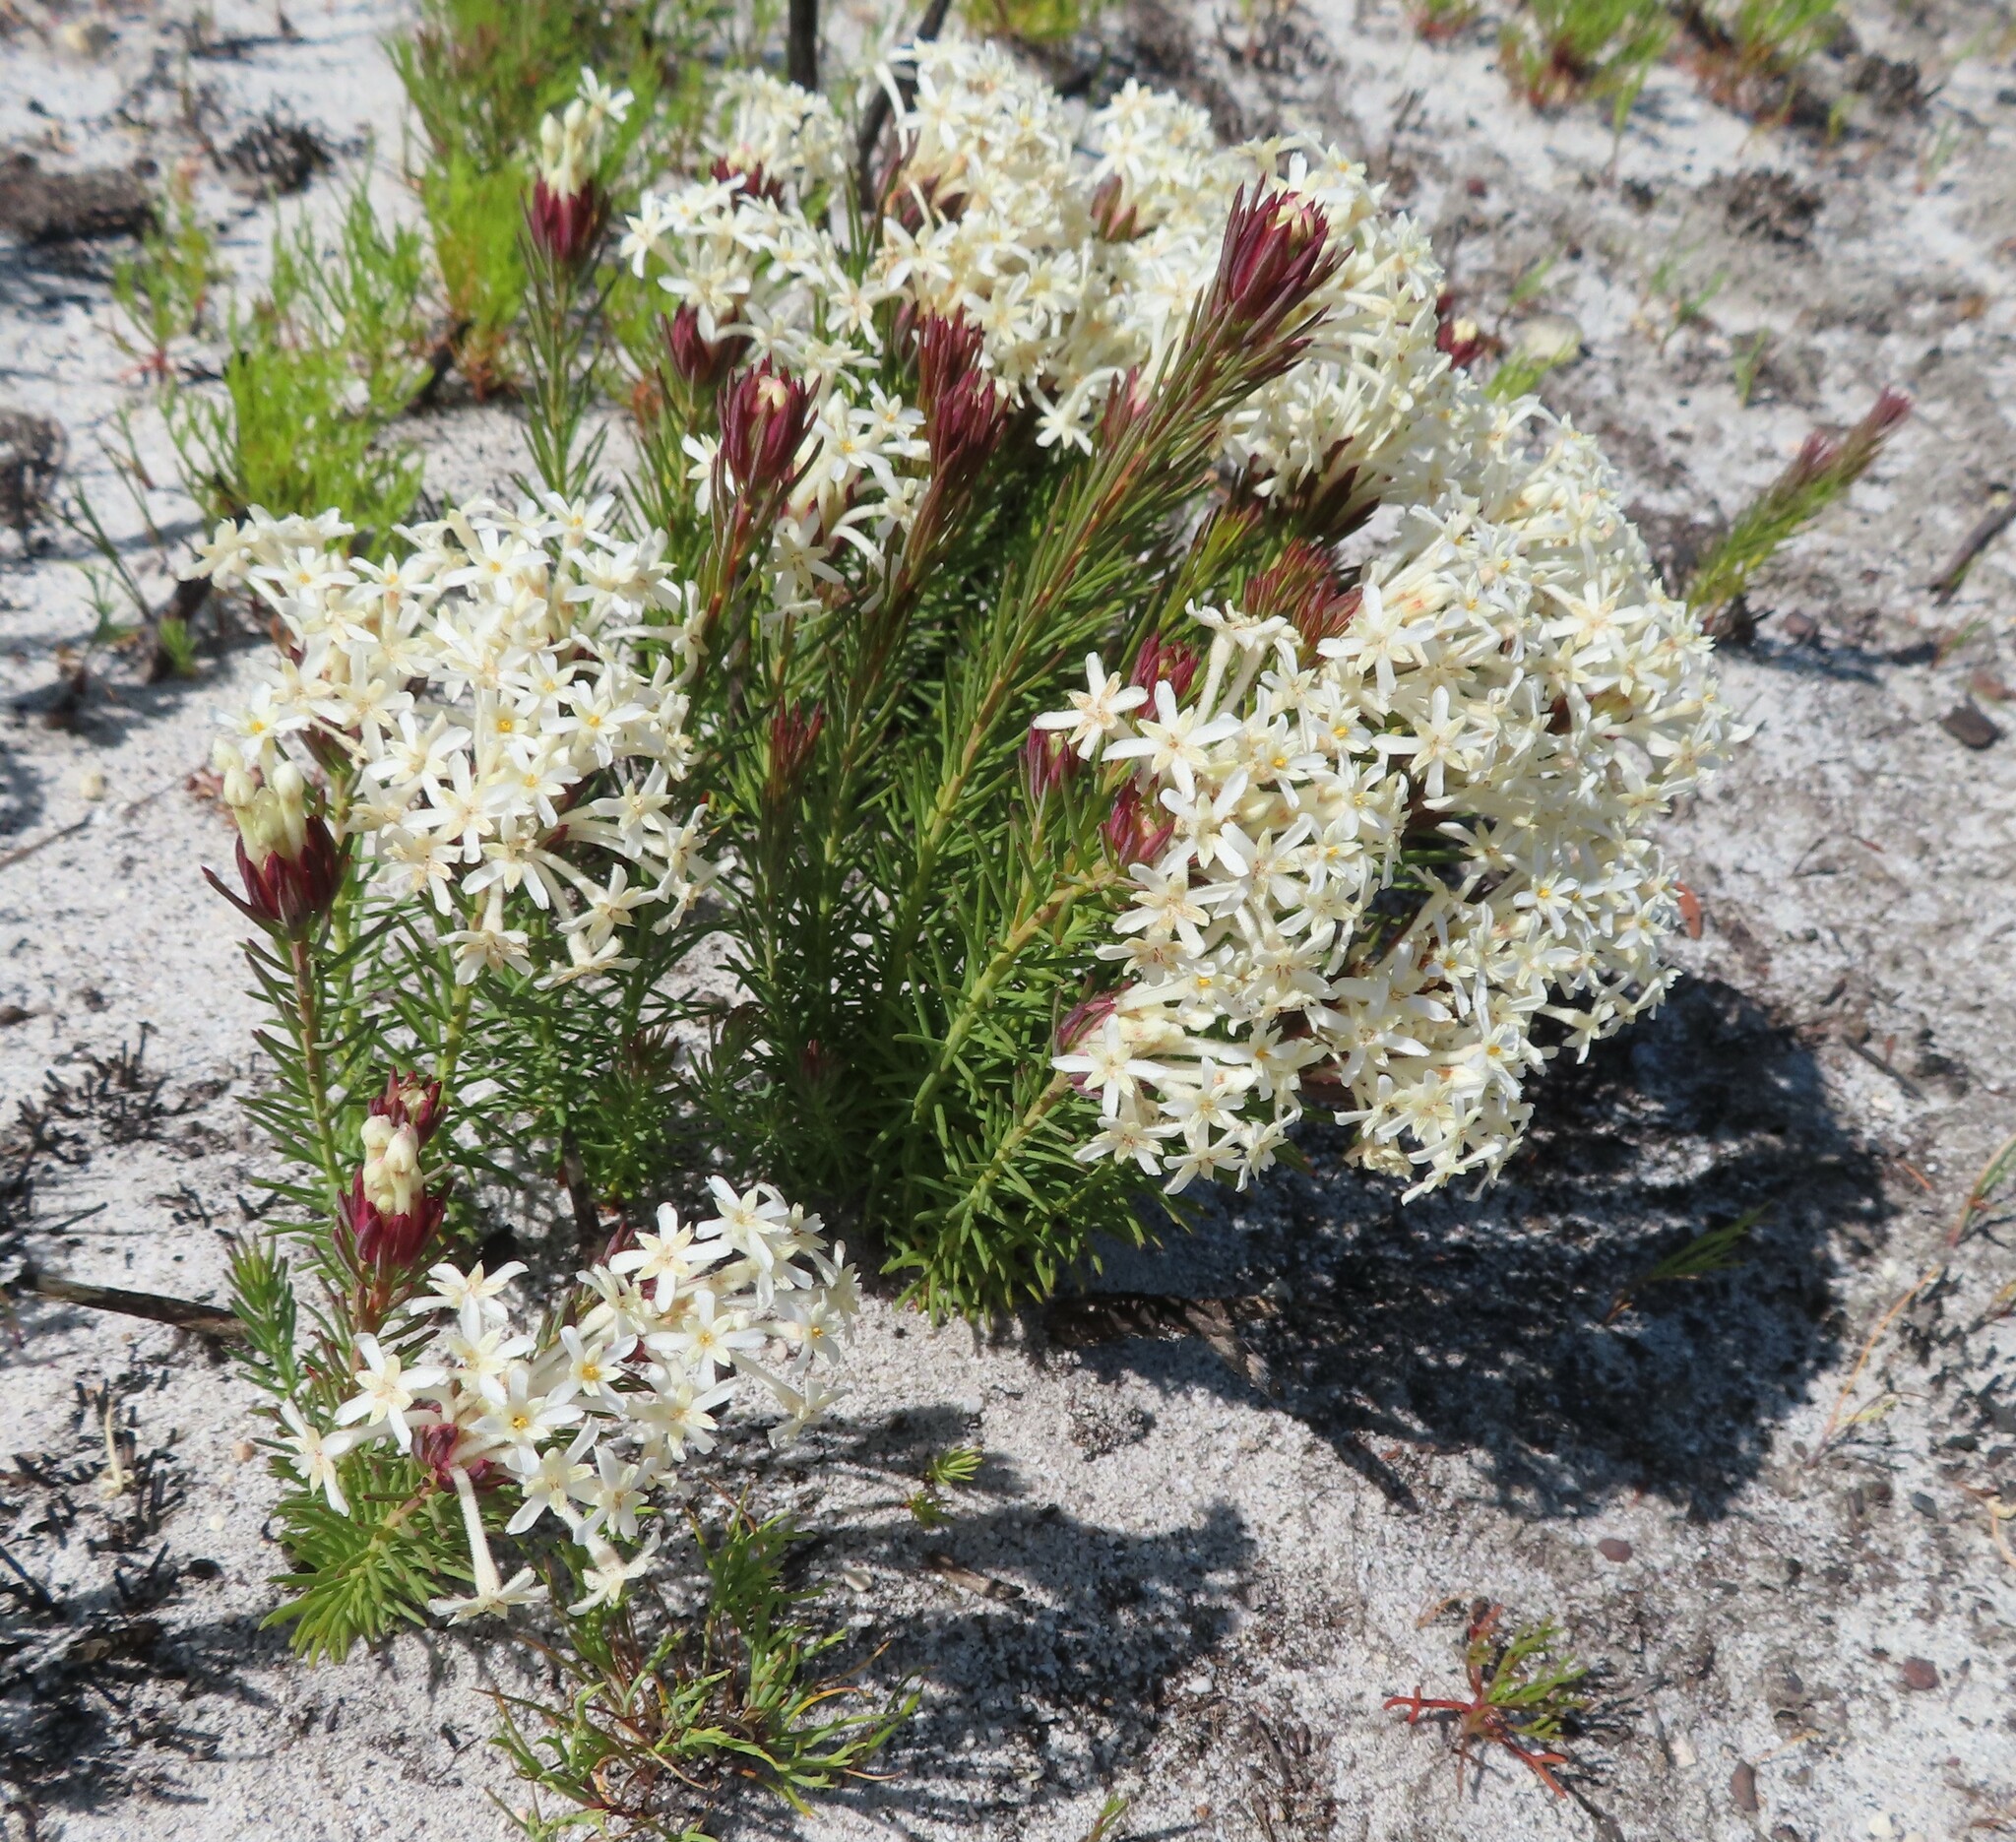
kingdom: Plantae
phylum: Tracheophyta
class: Magnoliopsida
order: Malvales
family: Thymelaeaceae
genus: Gnidia
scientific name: Gnidia pinifolia
